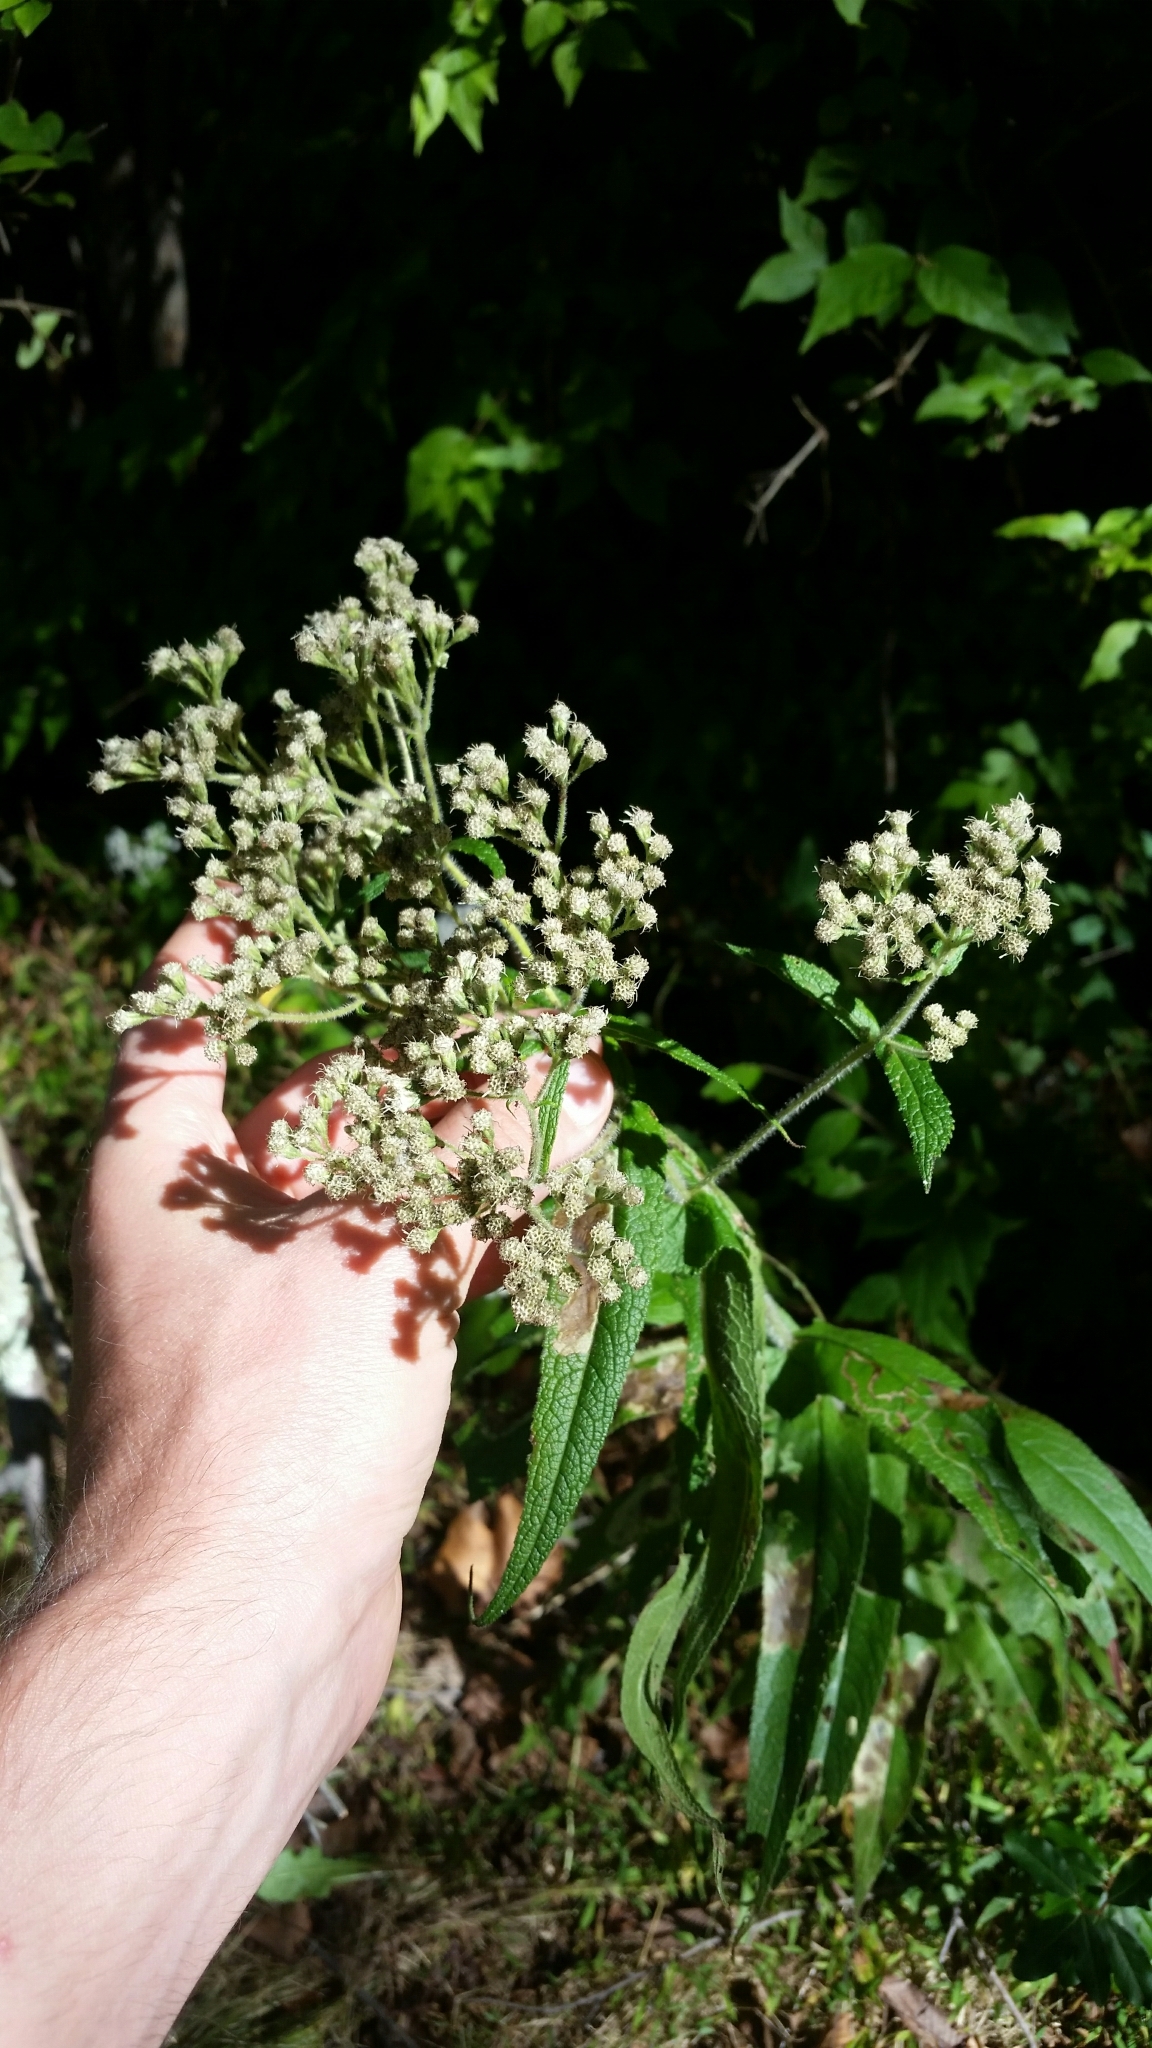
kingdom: Plantae
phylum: Tracheophyta
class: Magnoliopsida
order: Asterales
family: Asteraceae
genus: Eupatorium
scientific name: Eupatorium perfoliatum
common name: Boneset
